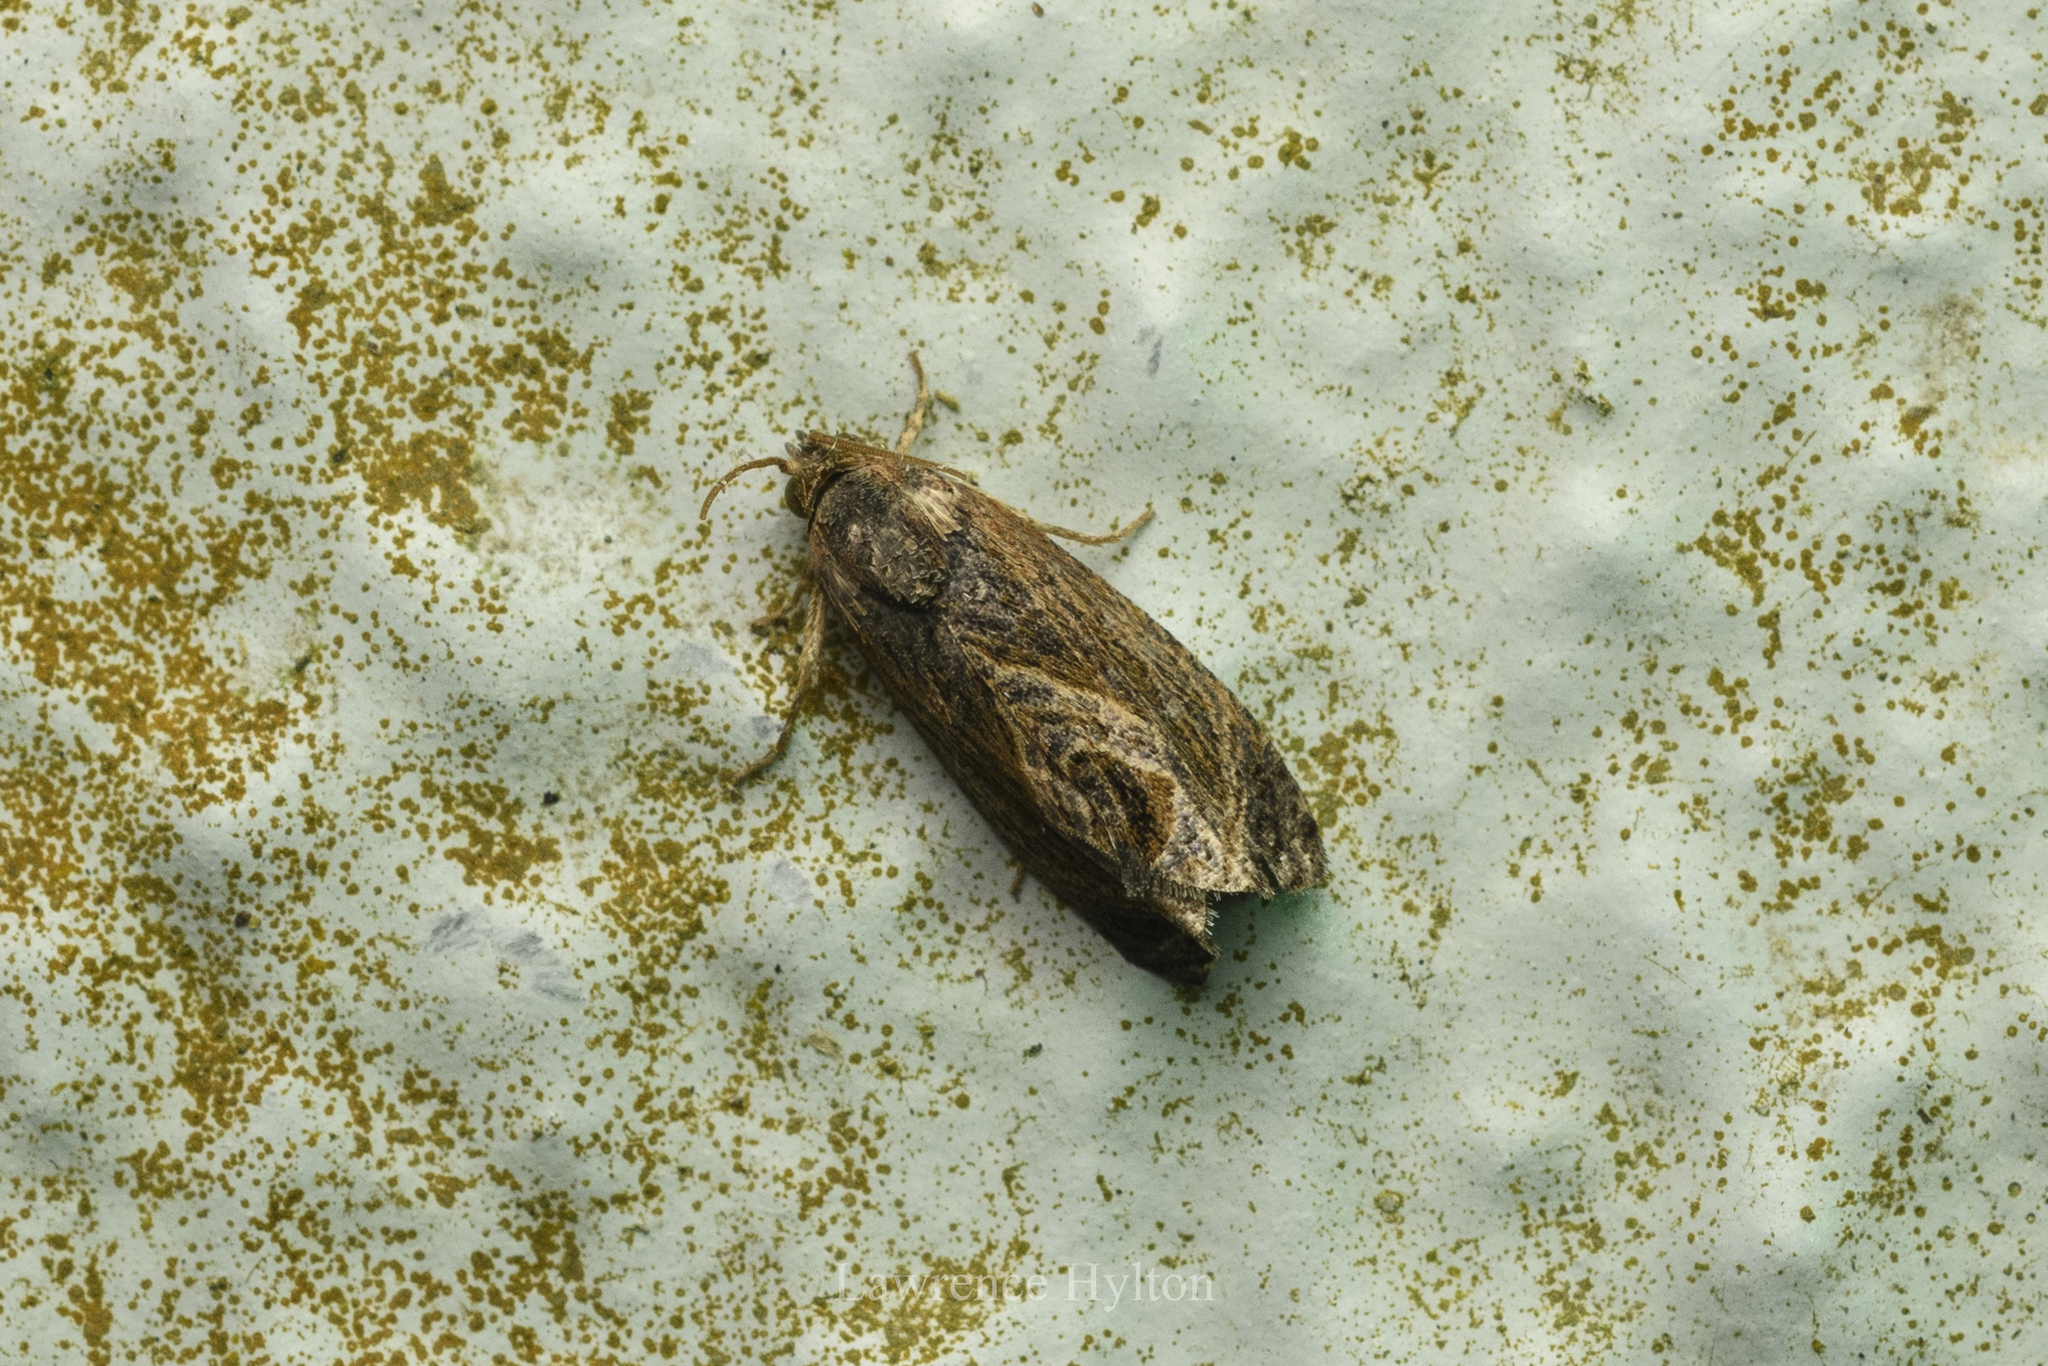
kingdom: Animalia
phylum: Arthropoda
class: Insecta
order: Lepidoptera
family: Tortricidae
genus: Cryptophlebia
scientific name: Cryptophlebia repletana
